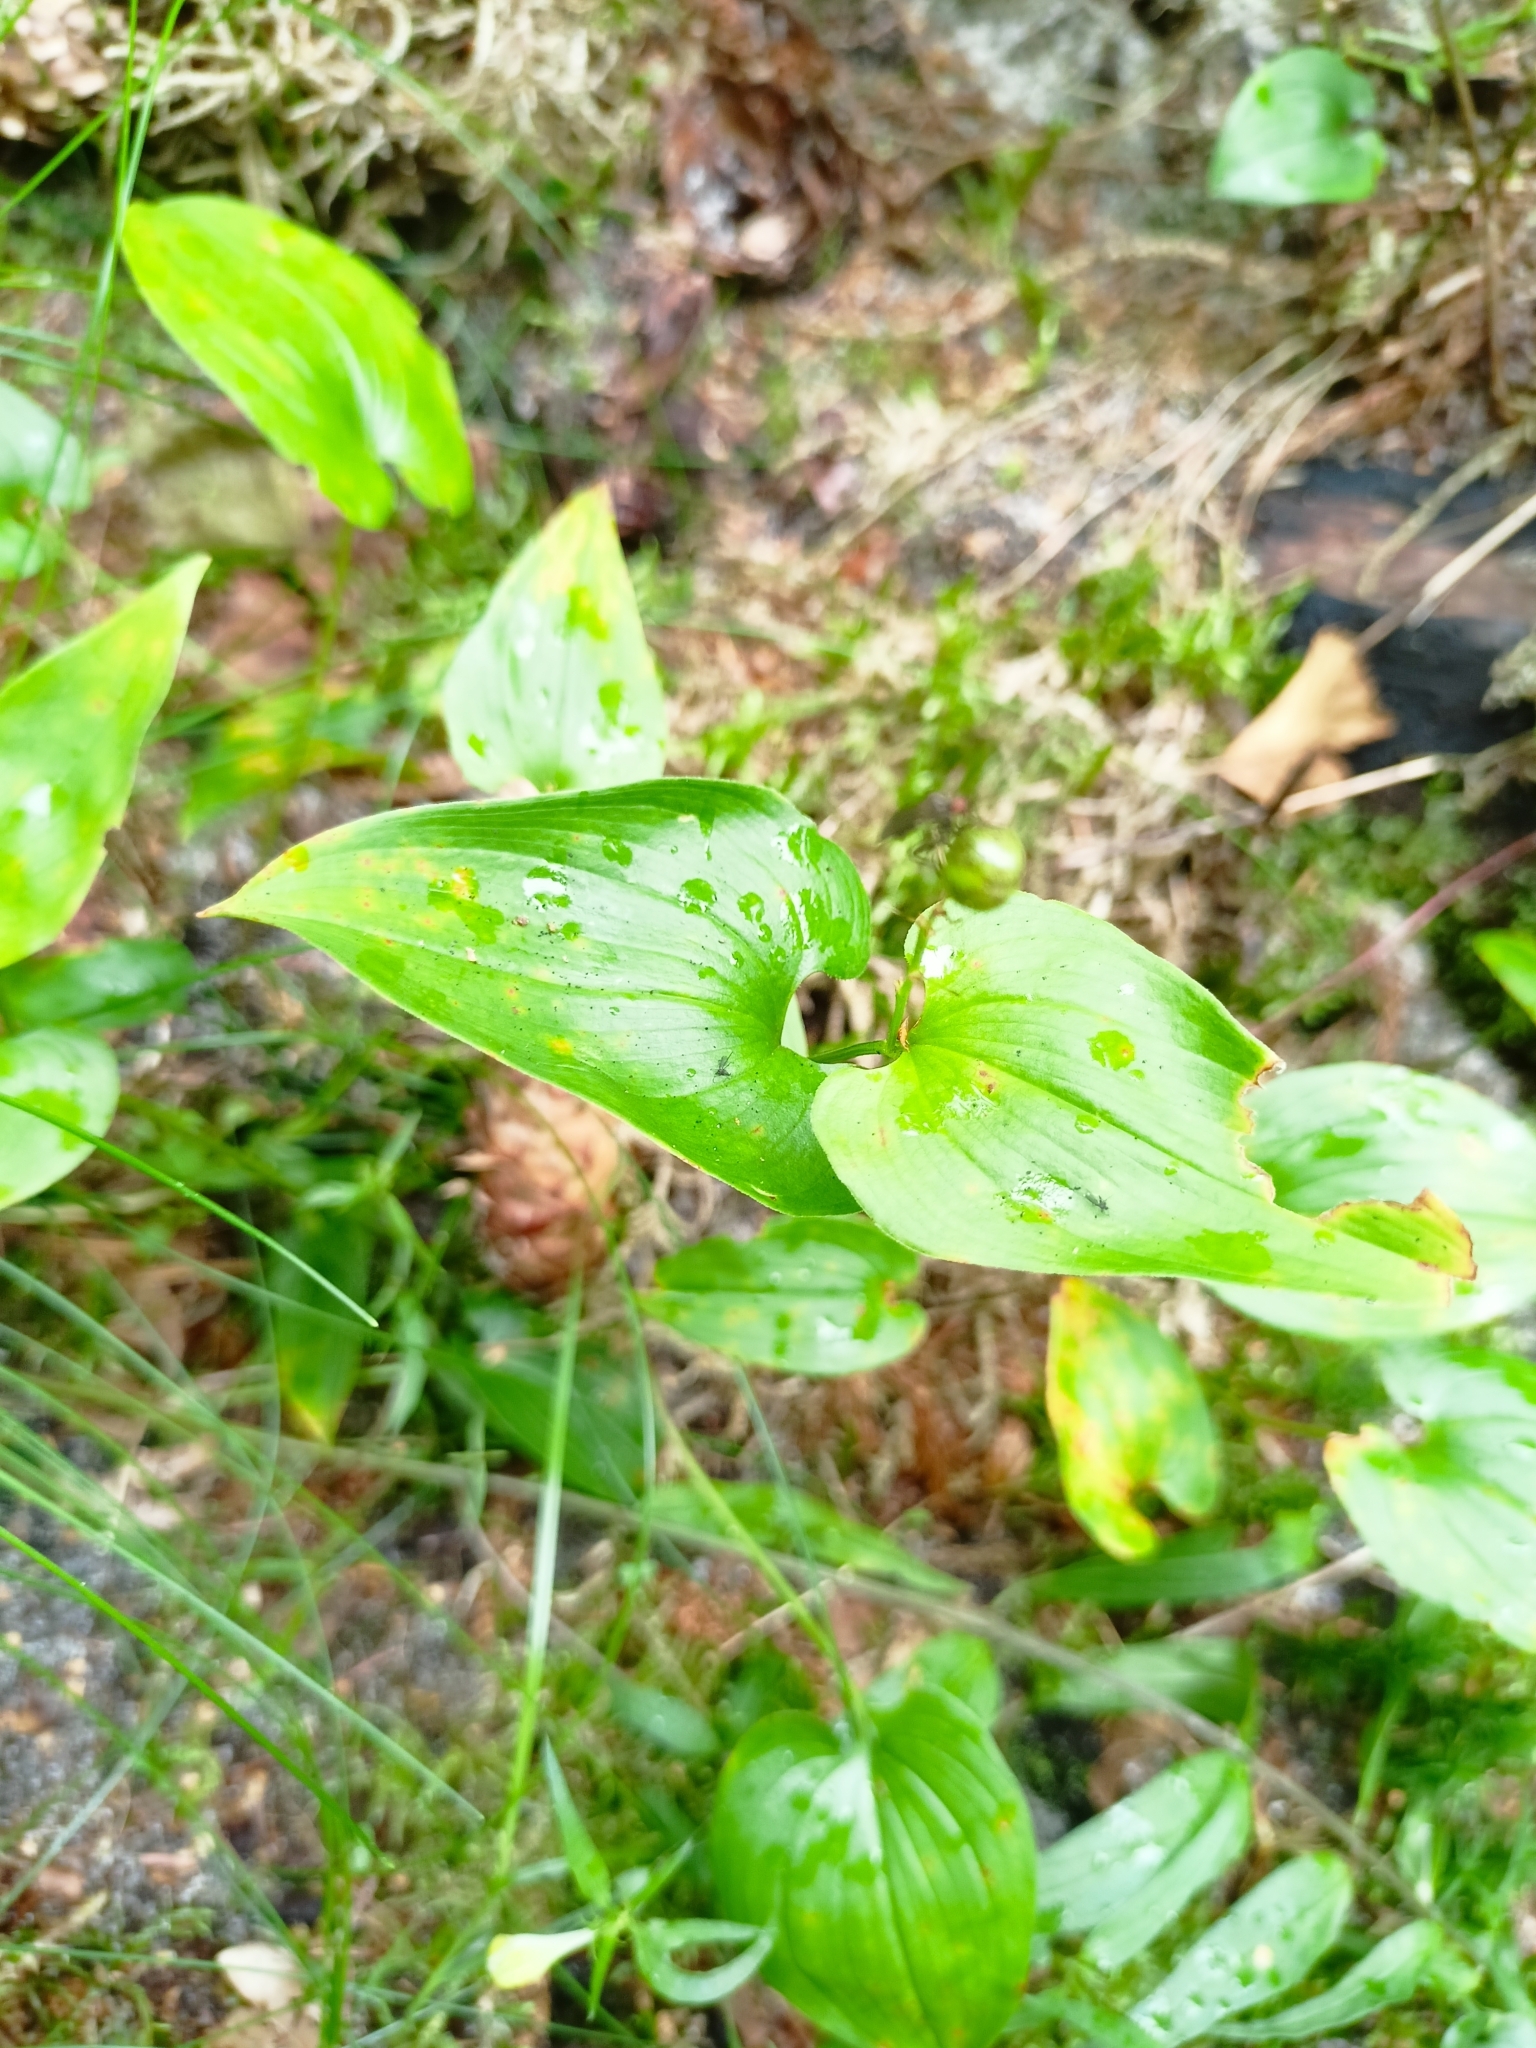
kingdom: Plantae
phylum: Tracheophyta
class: Liliopsida
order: Asparagales
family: Asparagaceae
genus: Maianthemum
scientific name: Maianthemum bifolium
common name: May lily
